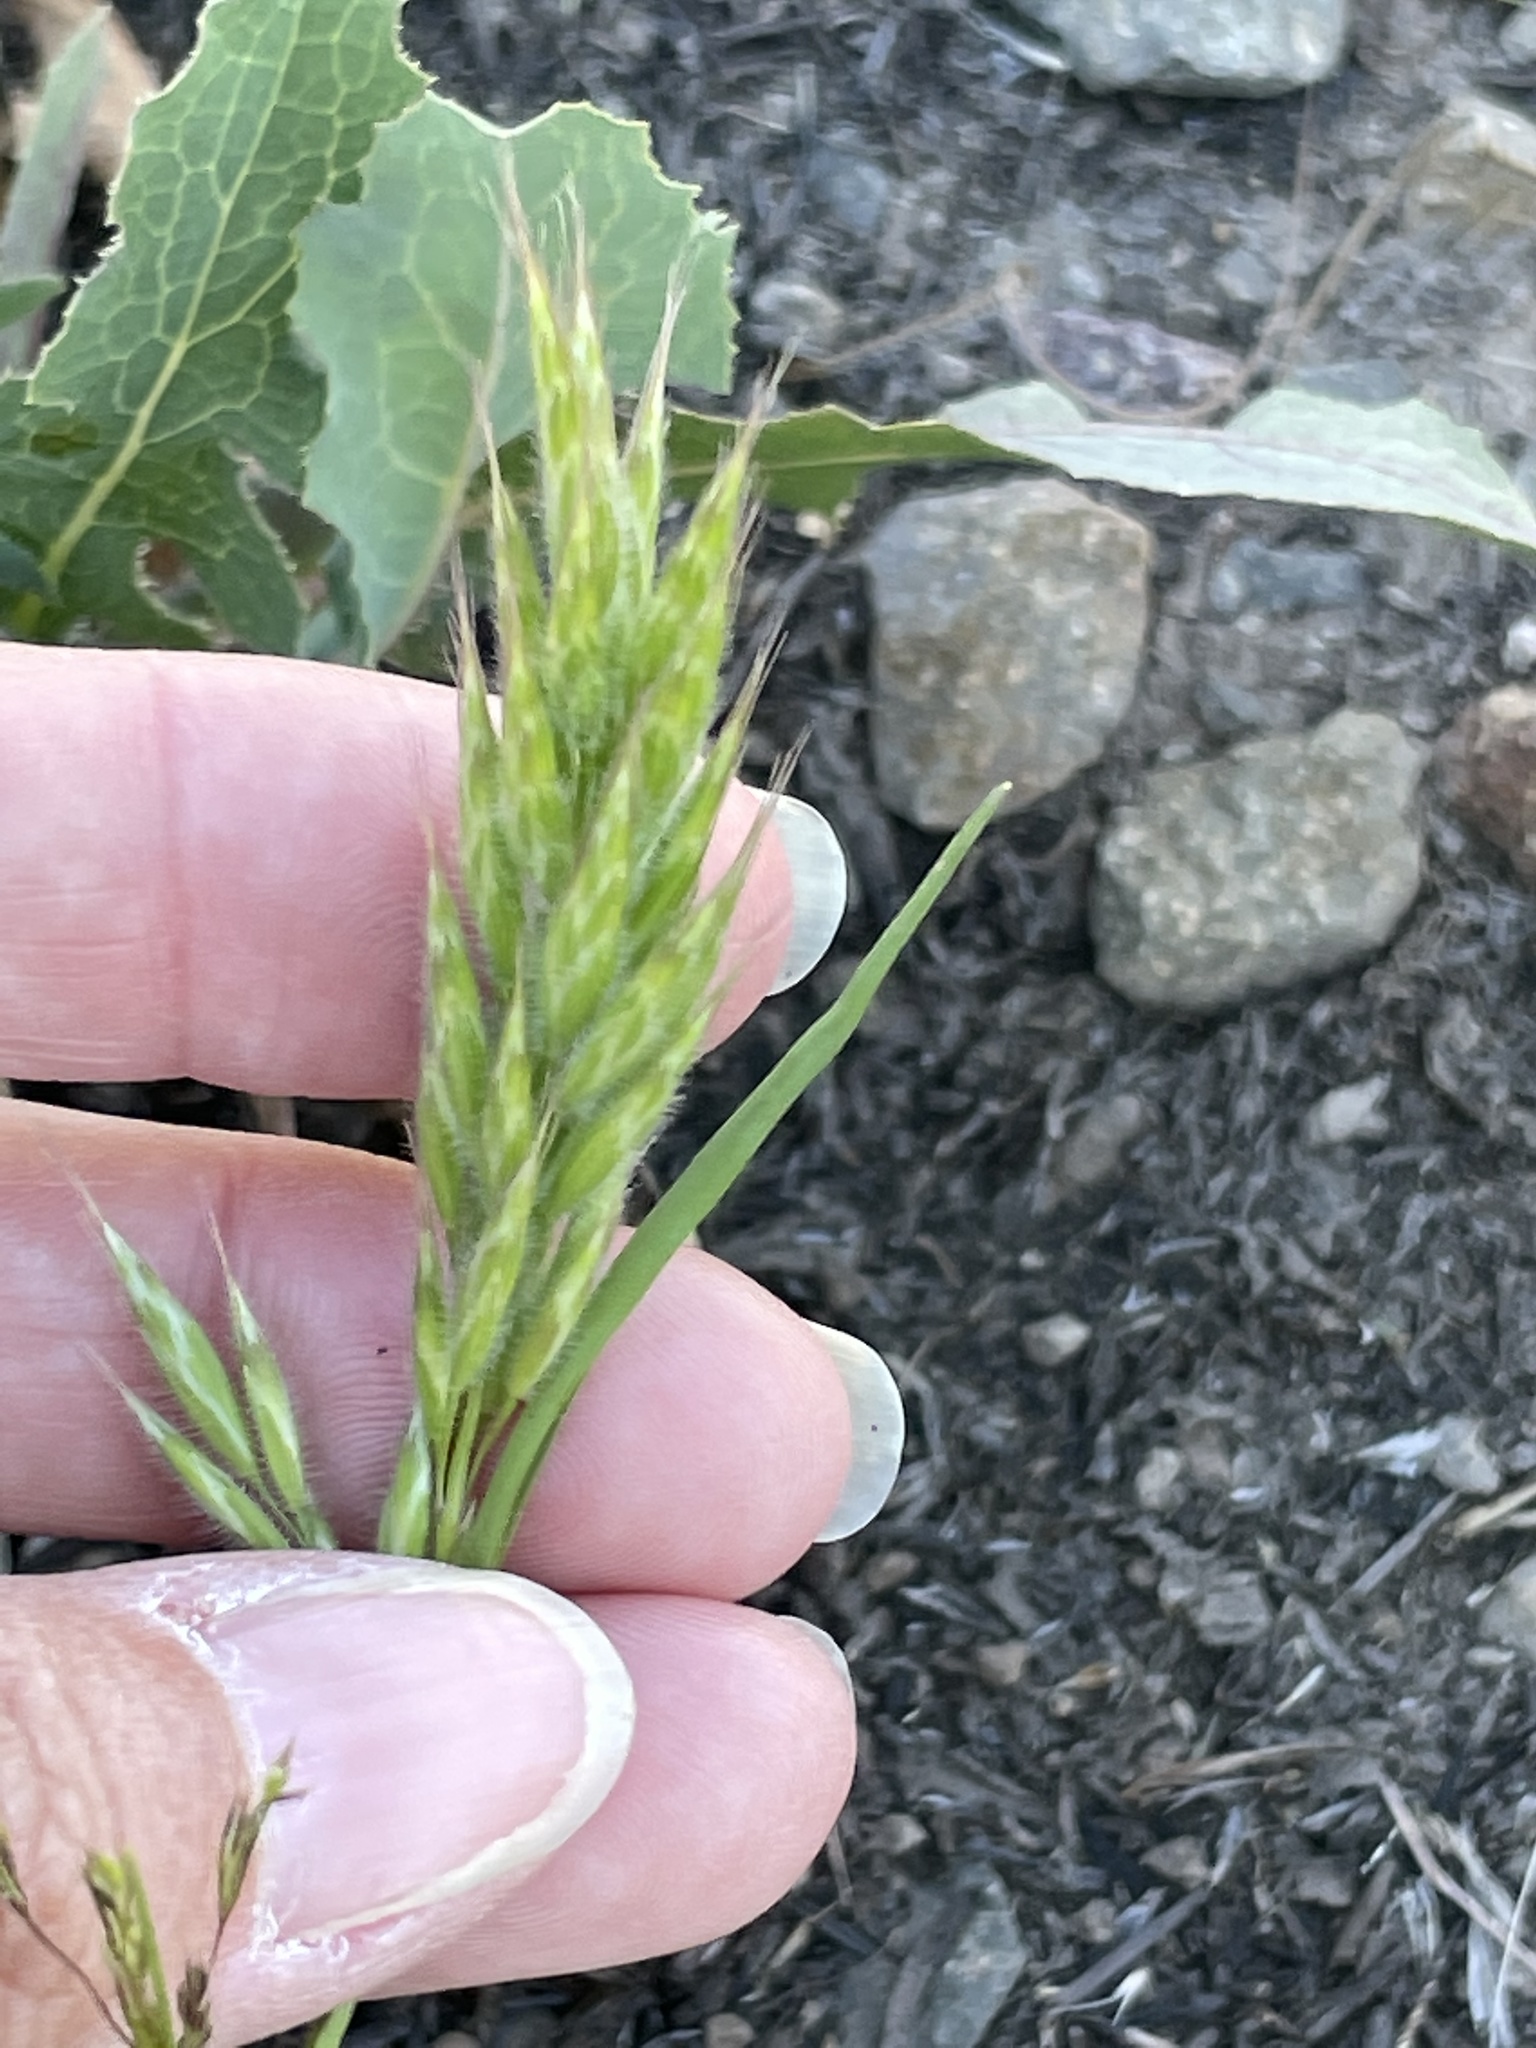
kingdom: Plantae
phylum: Tracheophyta
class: Liliopsida
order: Poales
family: Poaceae
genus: Bromus
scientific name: Bromus rubens
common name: Red brome
